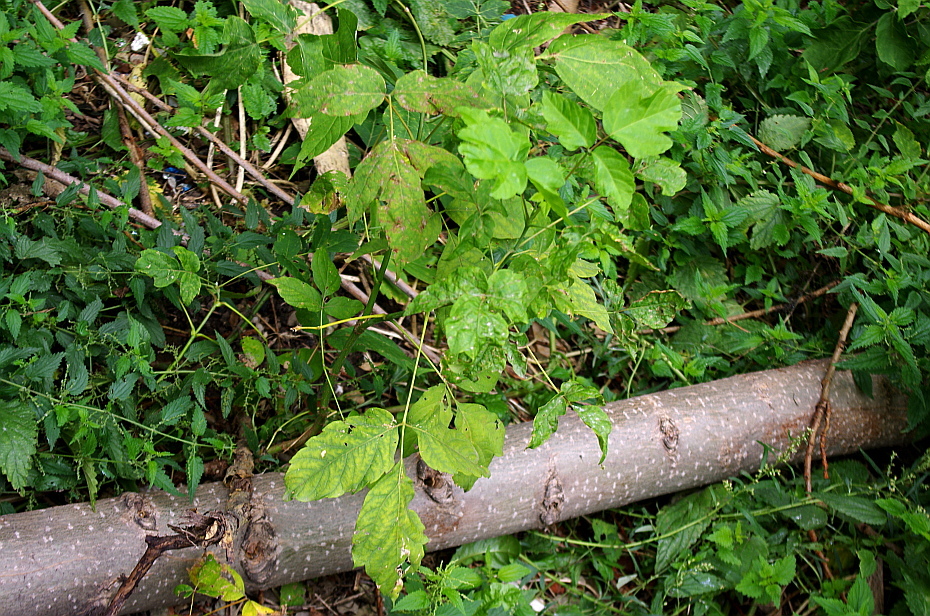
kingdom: Plantae
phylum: Tracheophyta
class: Magnoliopsida
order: Sapindales
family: Sapindaceae
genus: Acer
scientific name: Acer negundo
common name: Ashleaf maple
